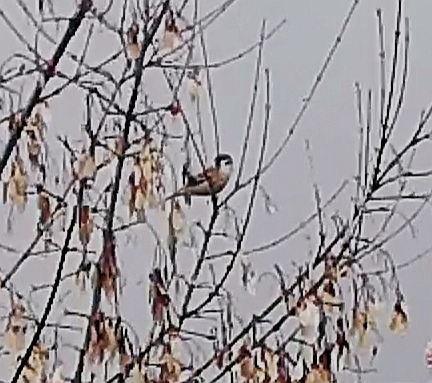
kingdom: Animalia
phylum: Chordata
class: Aves
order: Passeriformes
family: Passeridae
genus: Passer
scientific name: Passer montanus
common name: Eurasian tree sparrow
